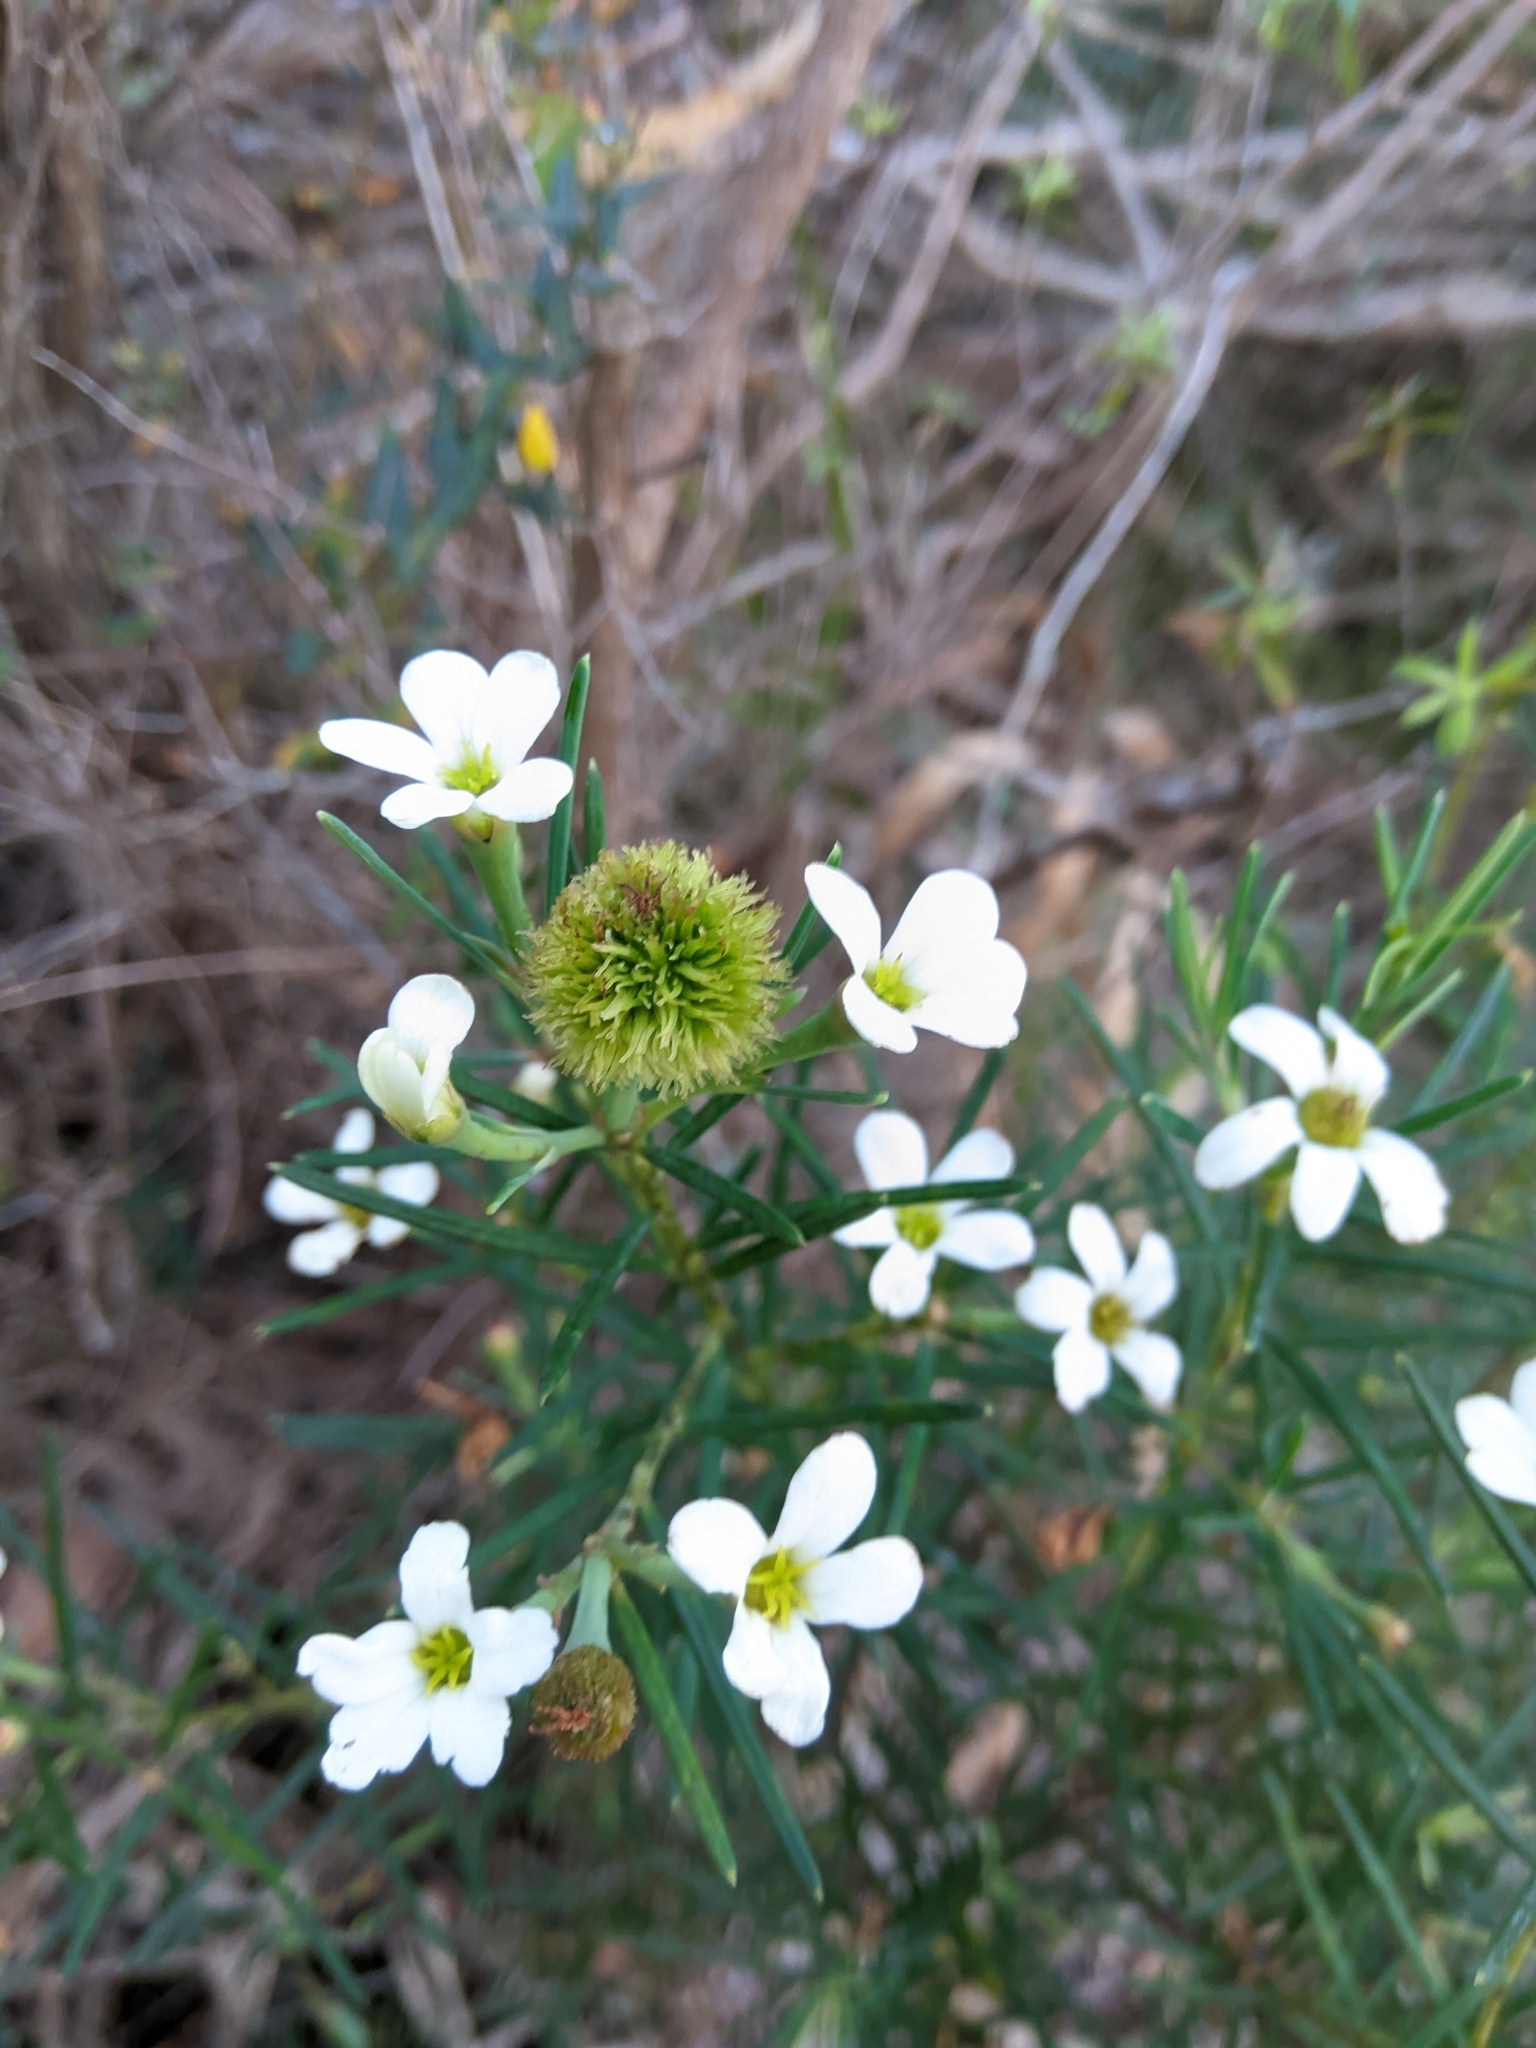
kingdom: Plantae
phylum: Tracheophyta
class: Magnoliopsida
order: Malpighiales
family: Euphorbiaceae
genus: Ricinocarpos
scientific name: Ricinocarpos pinifolius
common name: Weddingbush
